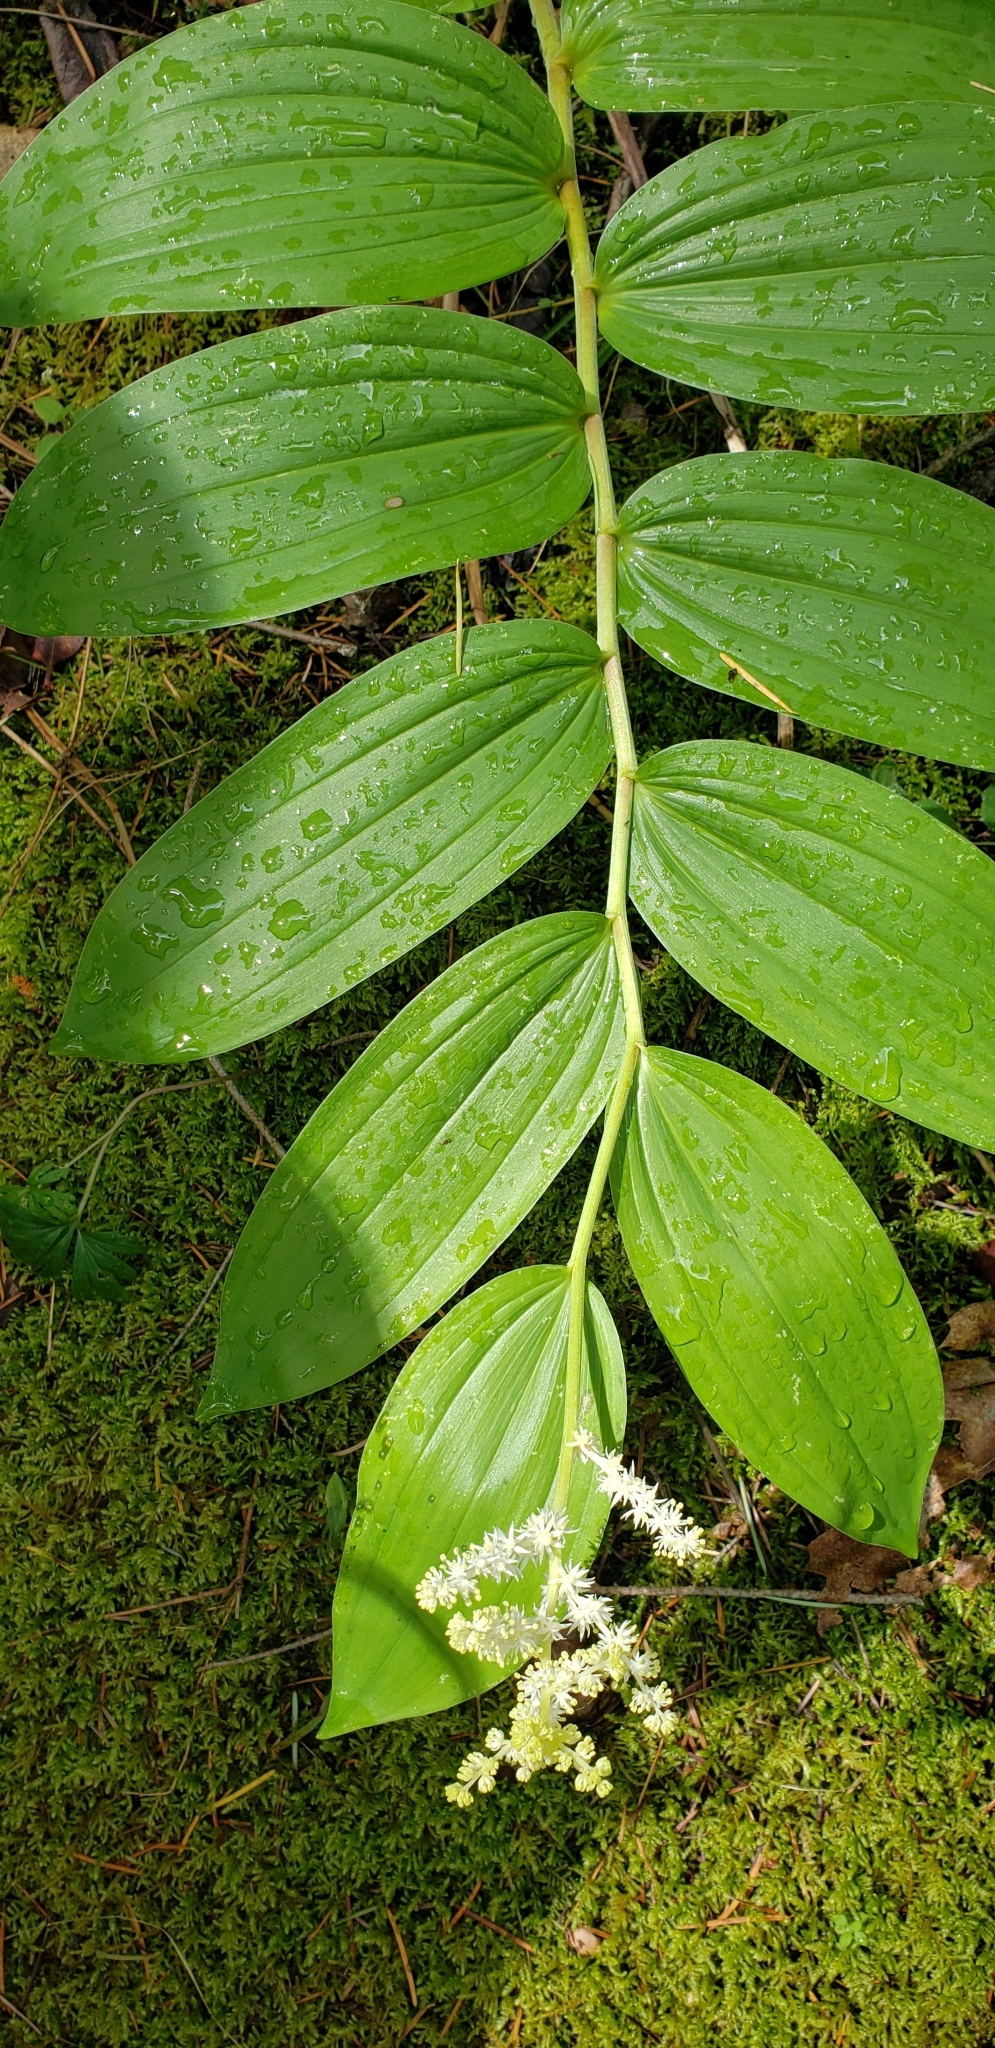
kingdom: Plantae
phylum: Tracheophyta
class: Liliopsida
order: Asparagales
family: Asparagaceae
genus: Maianthemum
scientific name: Maianthemum racemosum
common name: False spikenard
